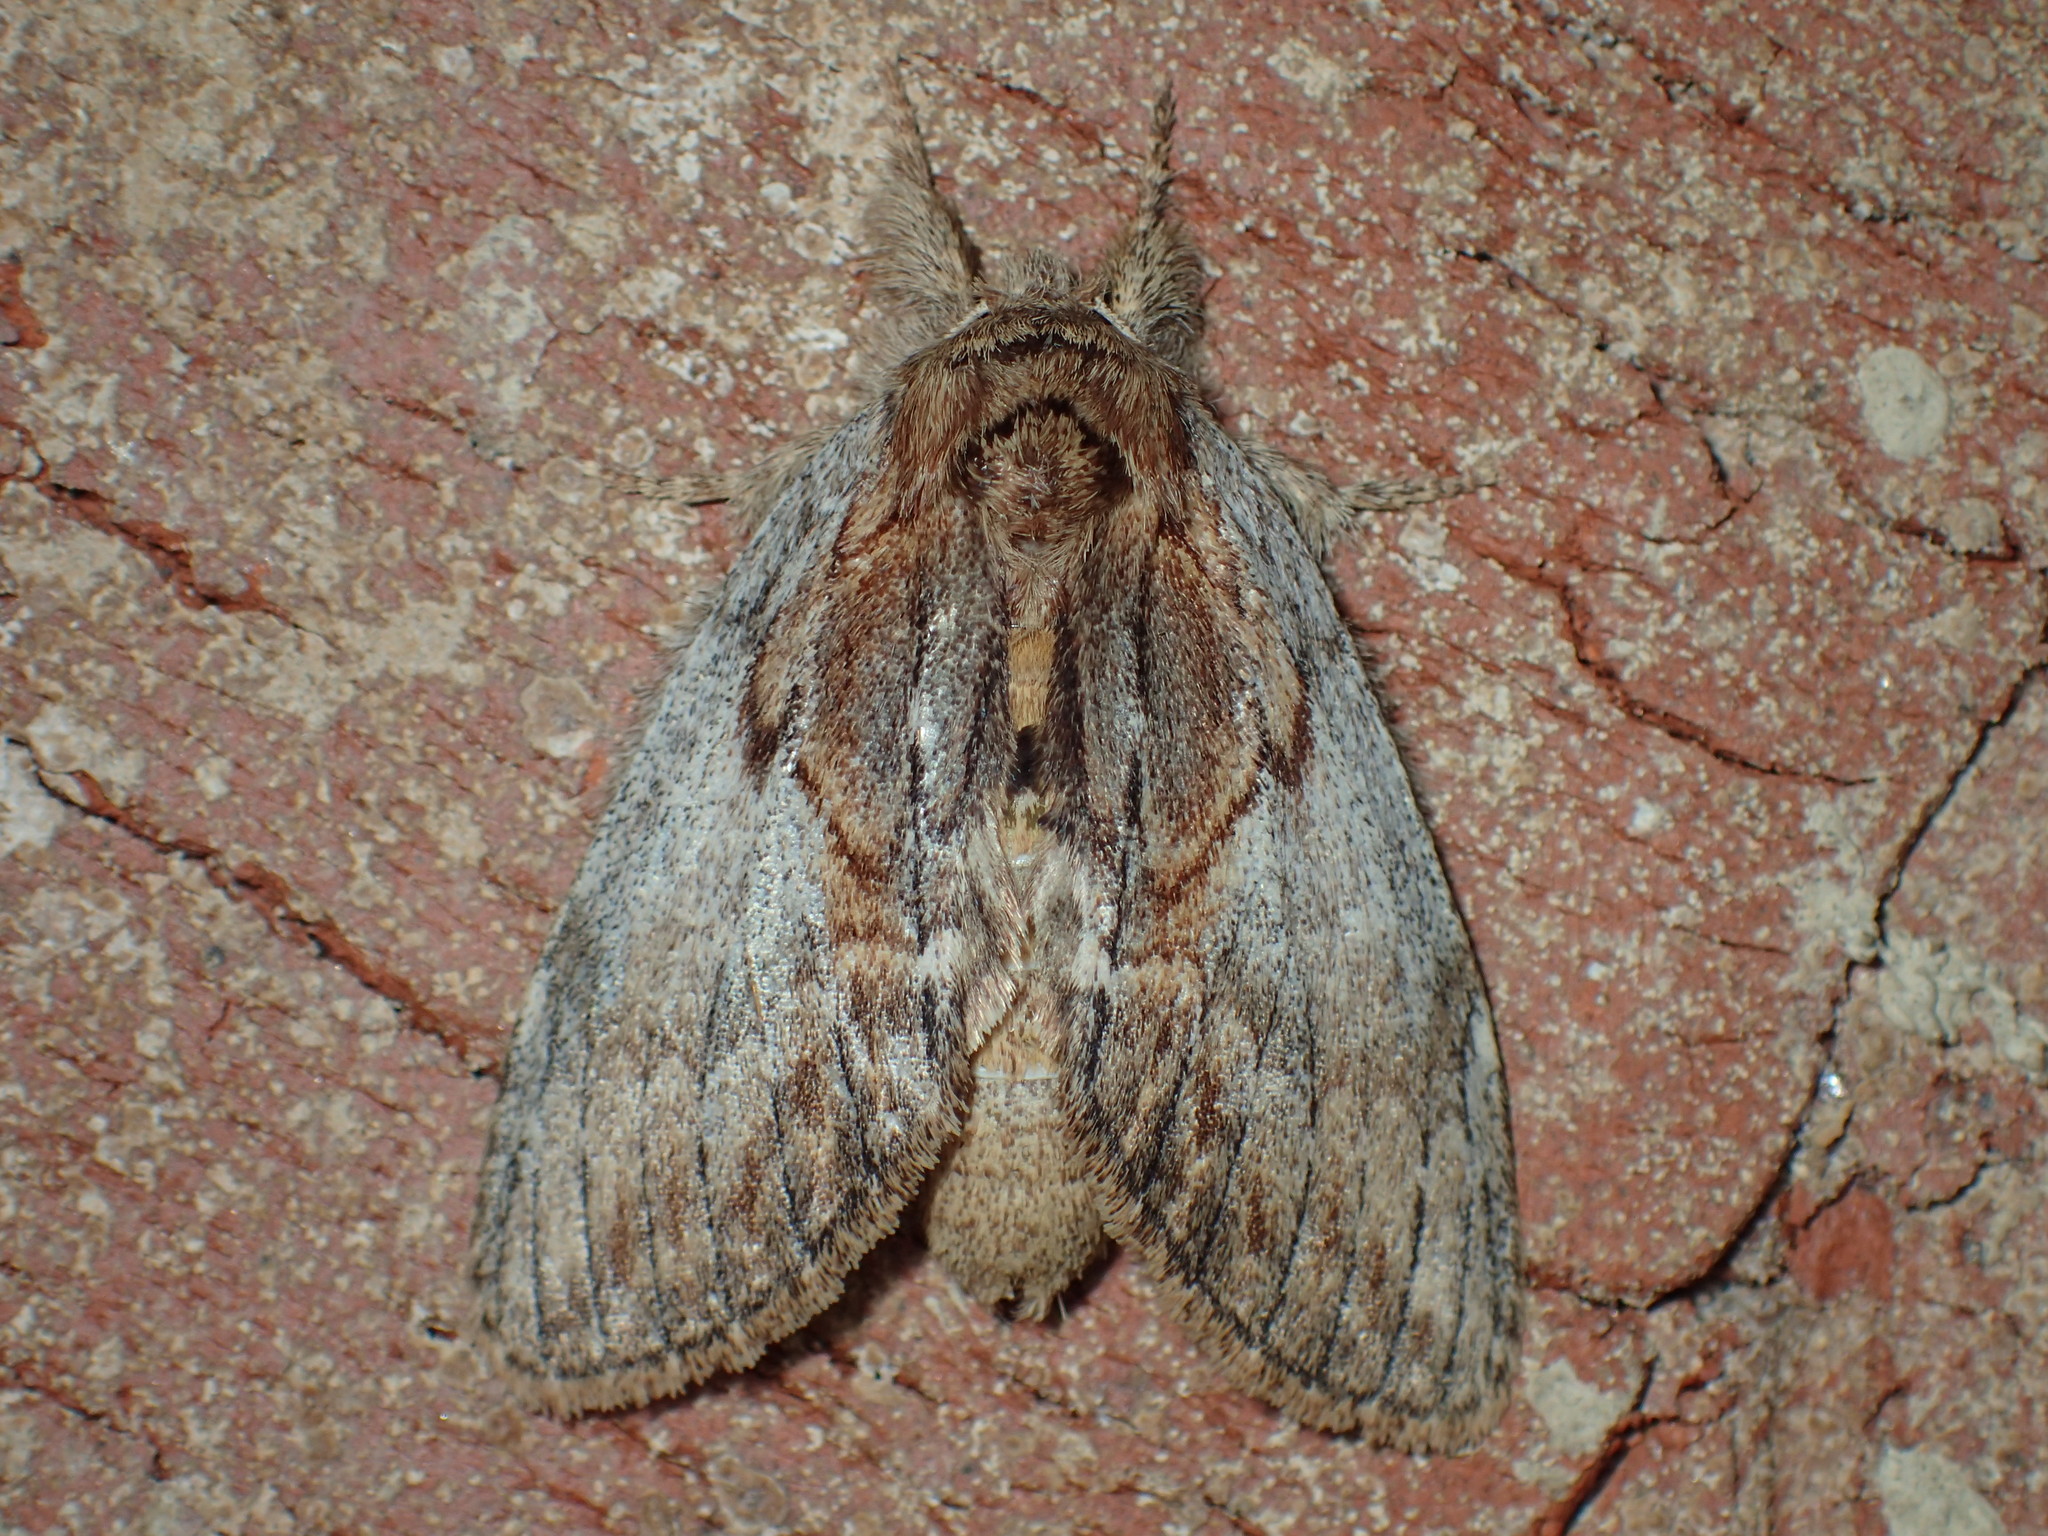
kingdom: Animalia
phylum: Arthropoda
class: Insecta
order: Lepidoptera
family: Notodontidae
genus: Peridea
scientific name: Peridea basitriens
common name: Oval-based prominent
